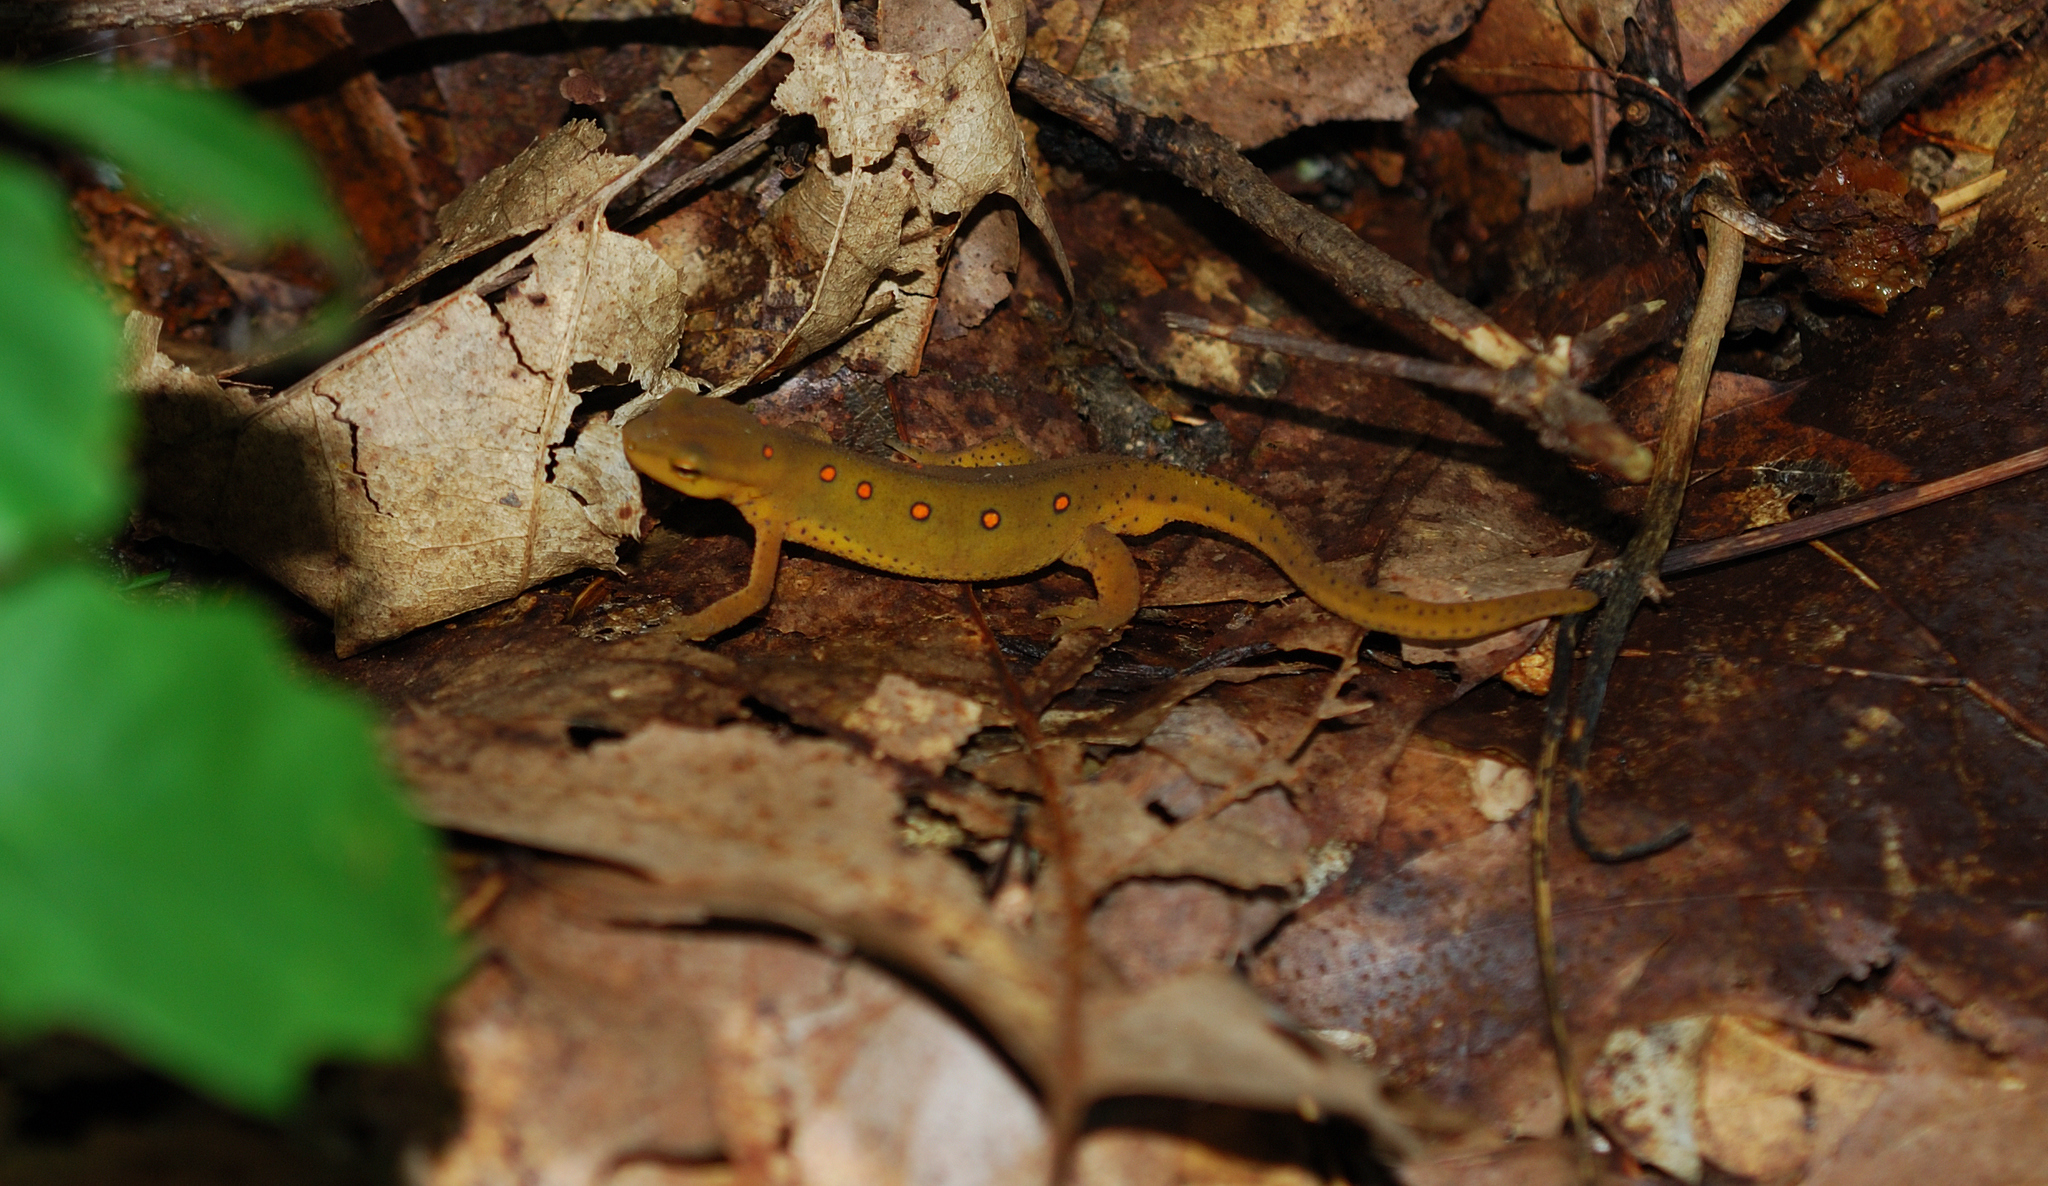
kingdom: Animalia
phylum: Chordata
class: Amphibia
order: Caudata
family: Salamandridae
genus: Notophthalmus
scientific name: Notophthalmus viridescens
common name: Eastern newt
